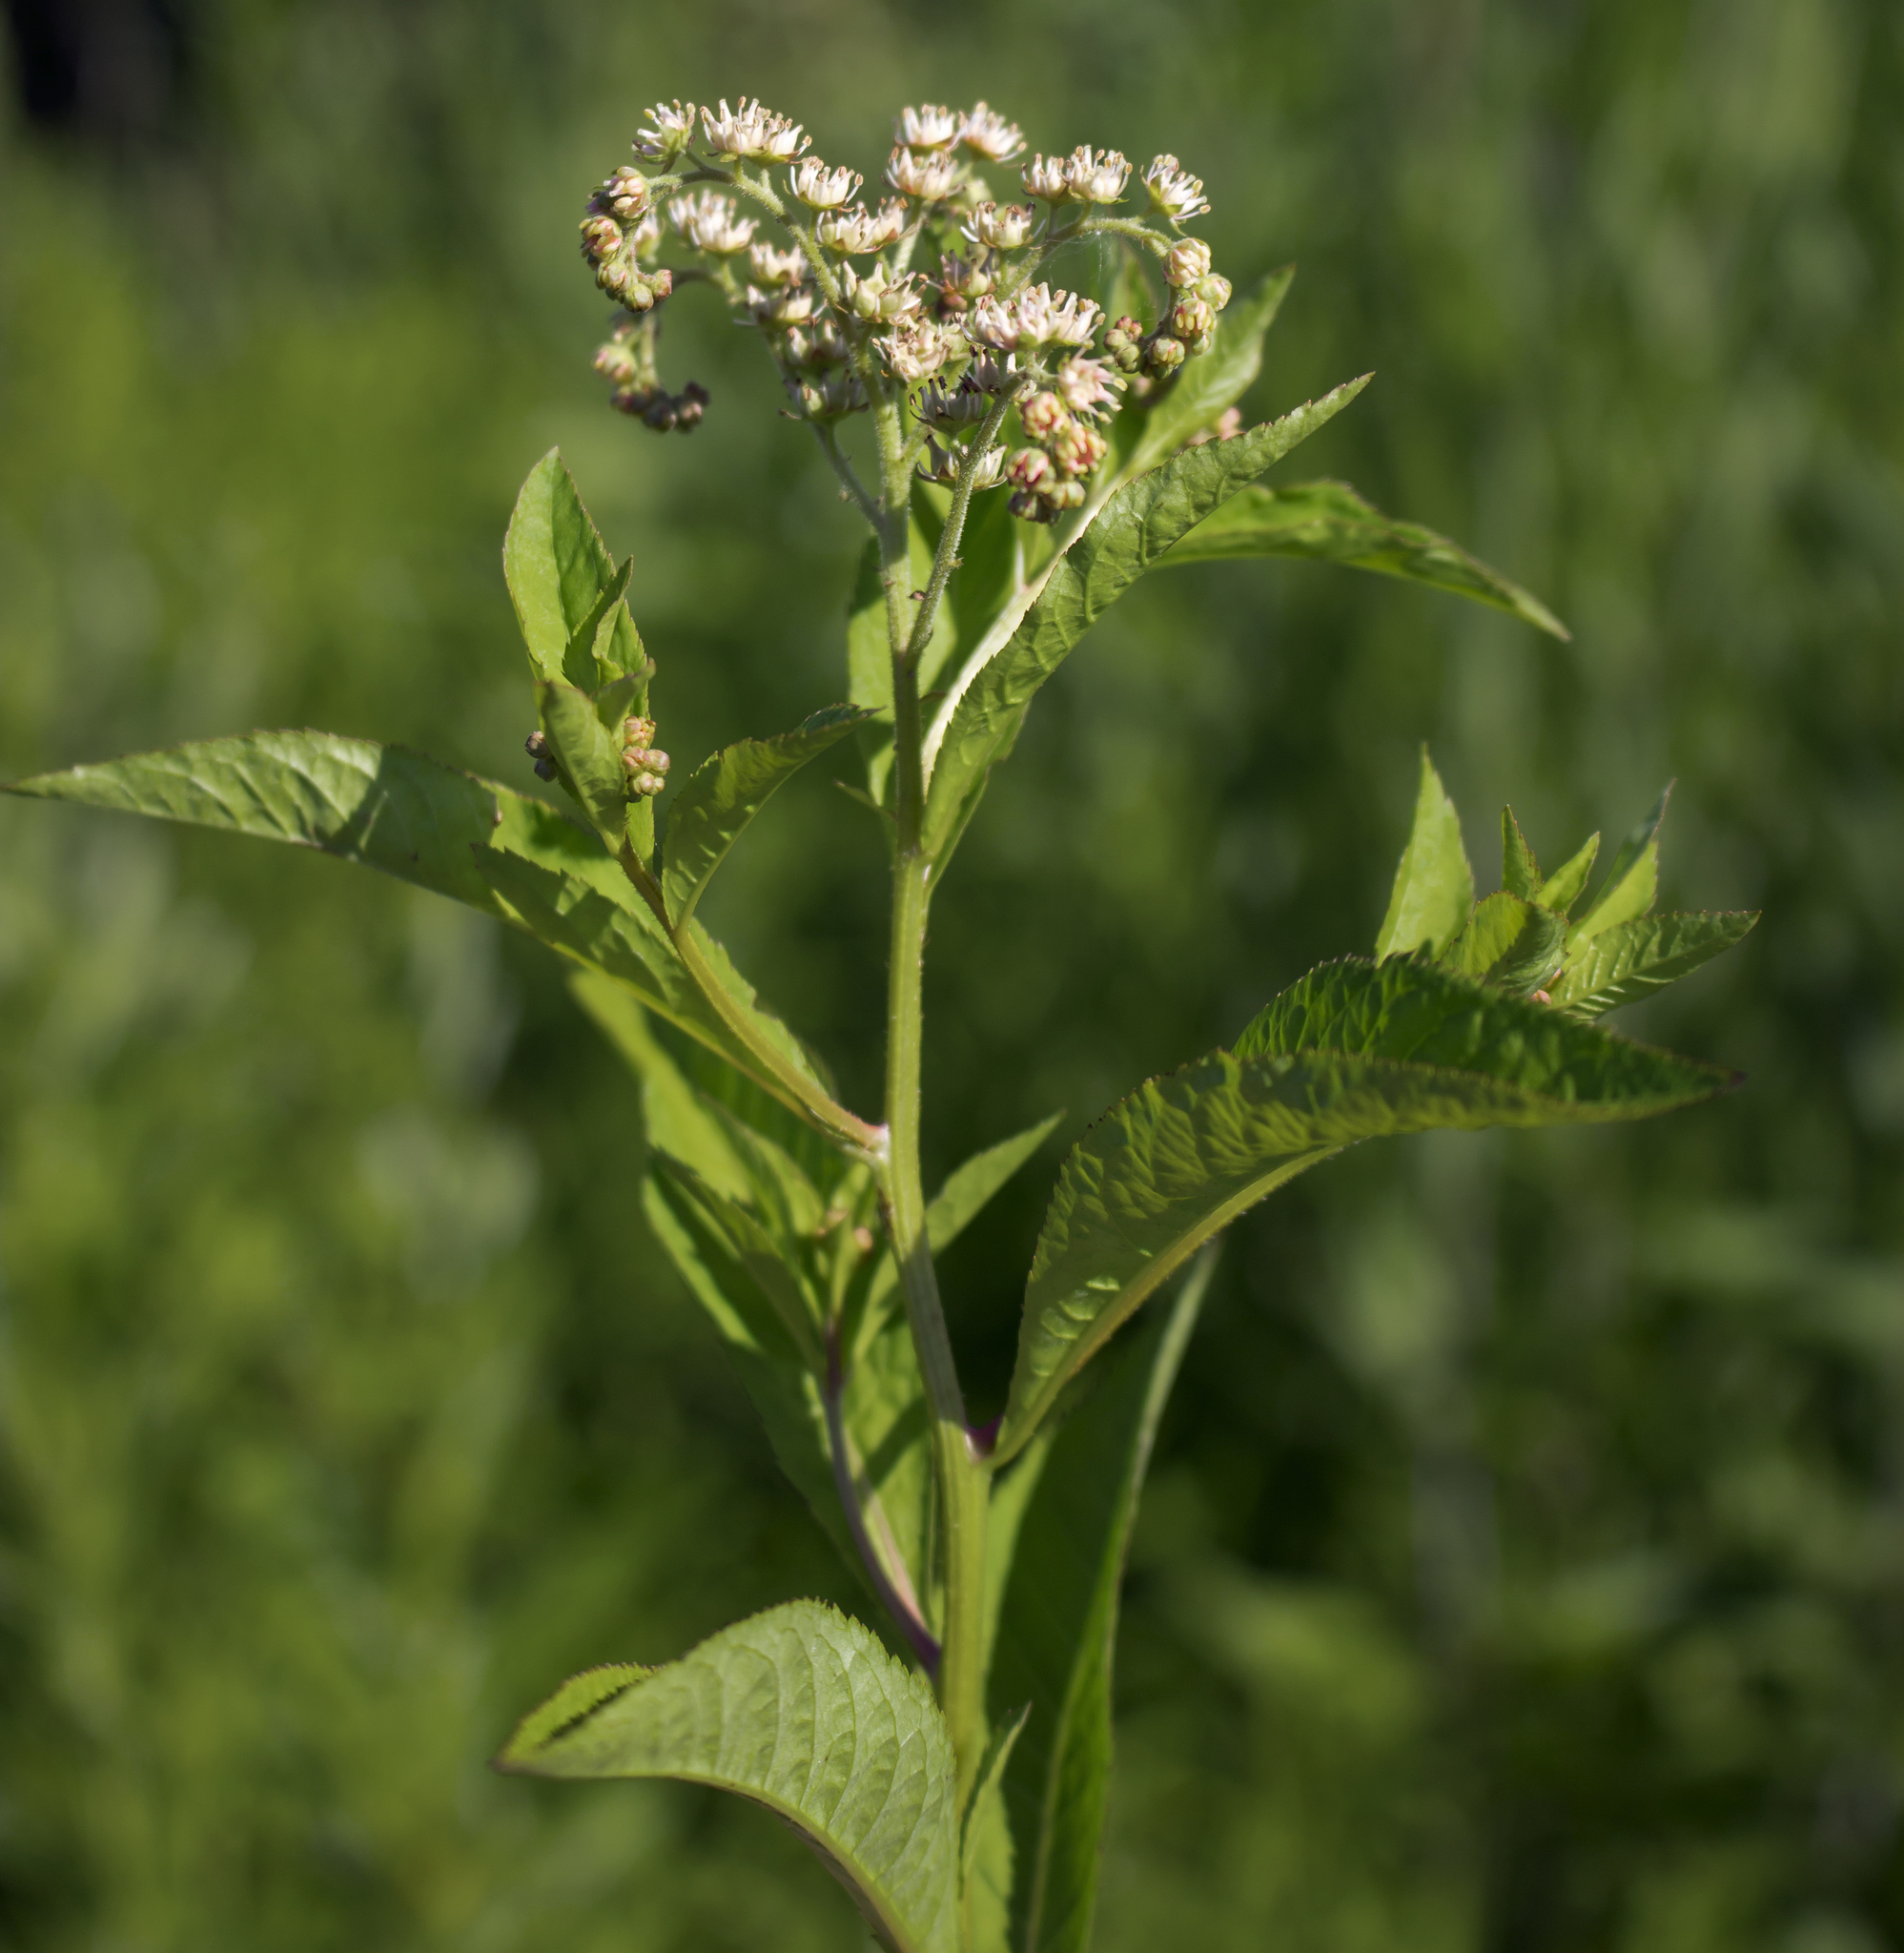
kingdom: Plantae
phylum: Tracheophyta
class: Magnoliopsida
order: Saxifragales
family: Penthoraceae
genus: Penthorum
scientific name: Penthorum sedoides
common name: Ditch stonecrop
